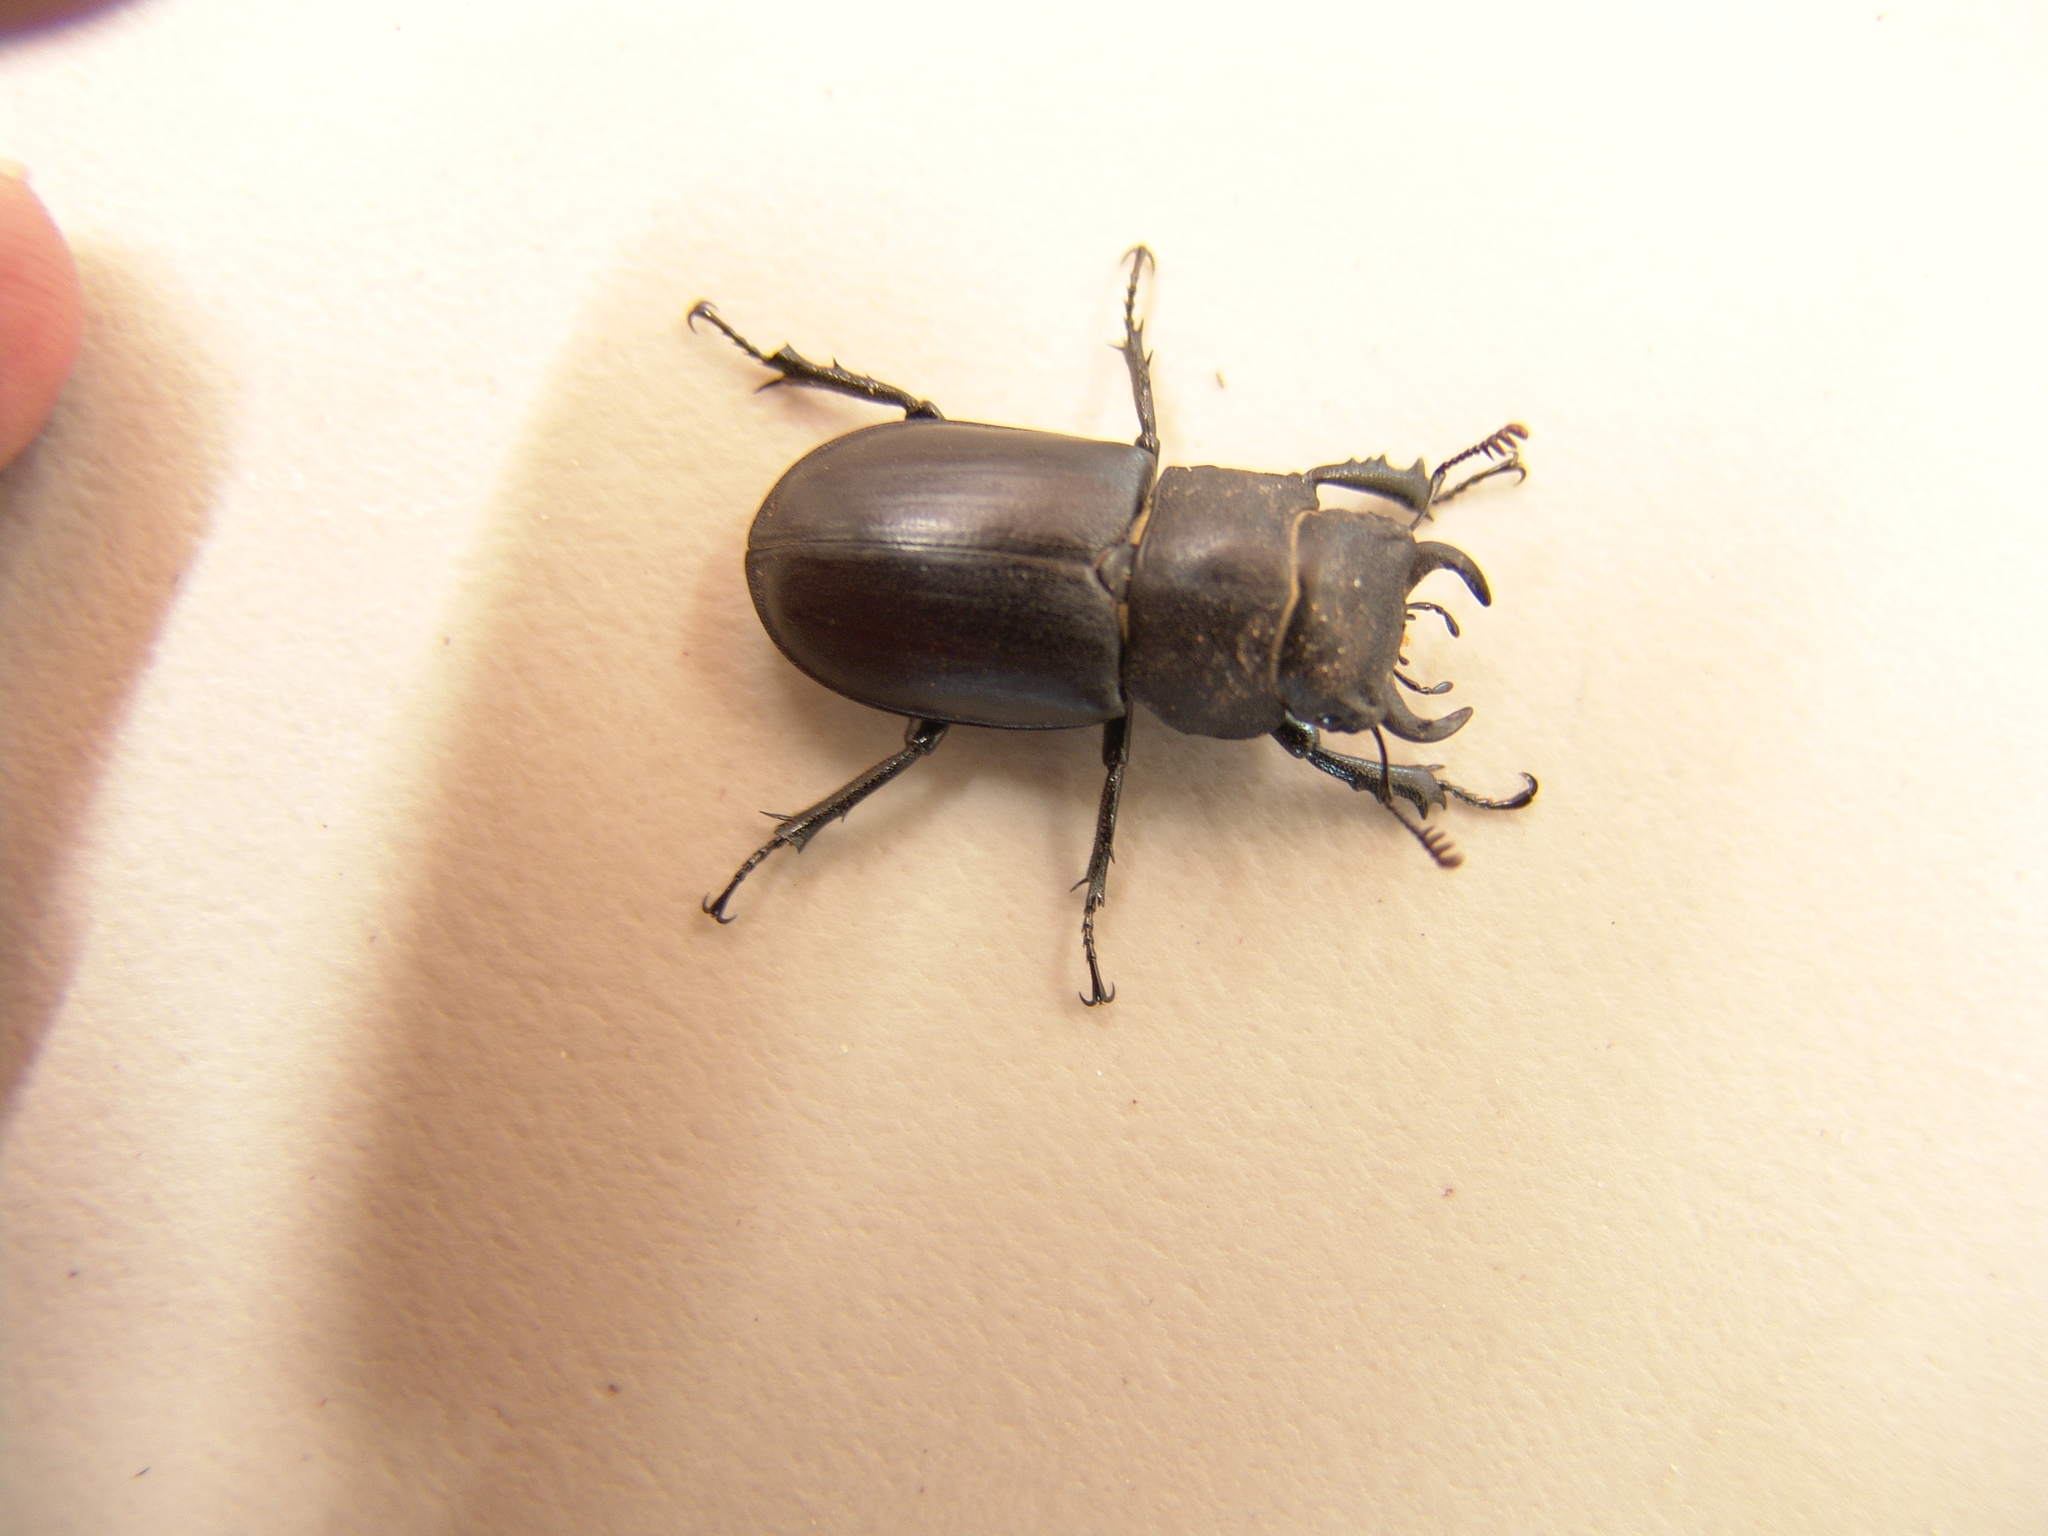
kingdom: Animalia
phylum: Arthropoda
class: Insecta
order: Coleoptera
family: Lucanidae
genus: Lucanus
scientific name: Lucanus mazama
